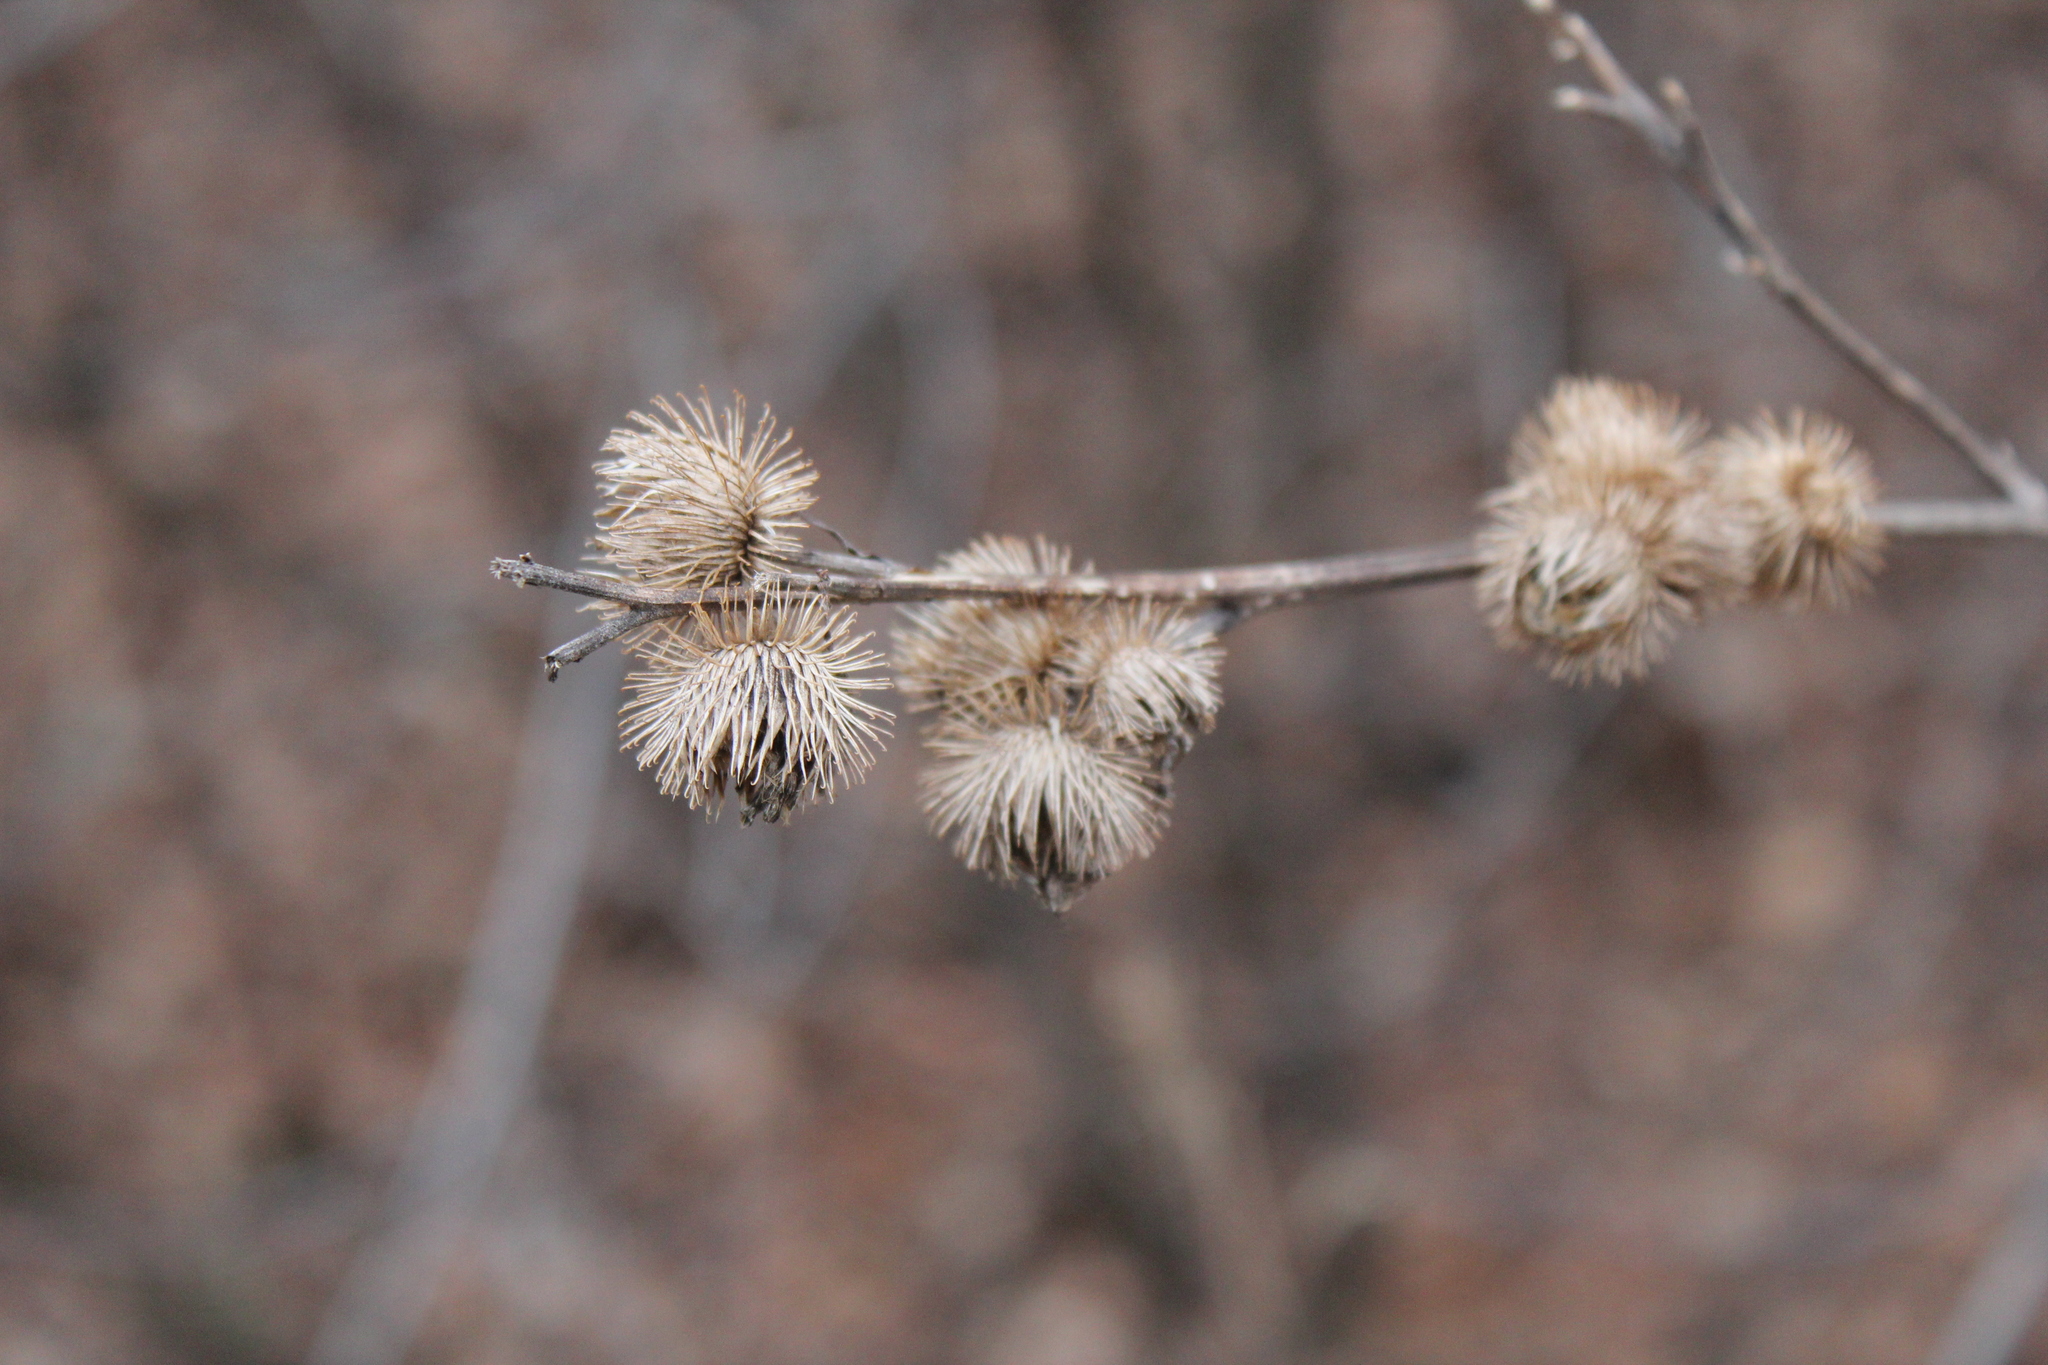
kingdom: Plantae
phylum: Tracheophyta
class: Magnoliopsida
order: Asterales
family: Asteraceae
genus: Arctium
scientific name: Arctium minus
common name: Lesser burdock
